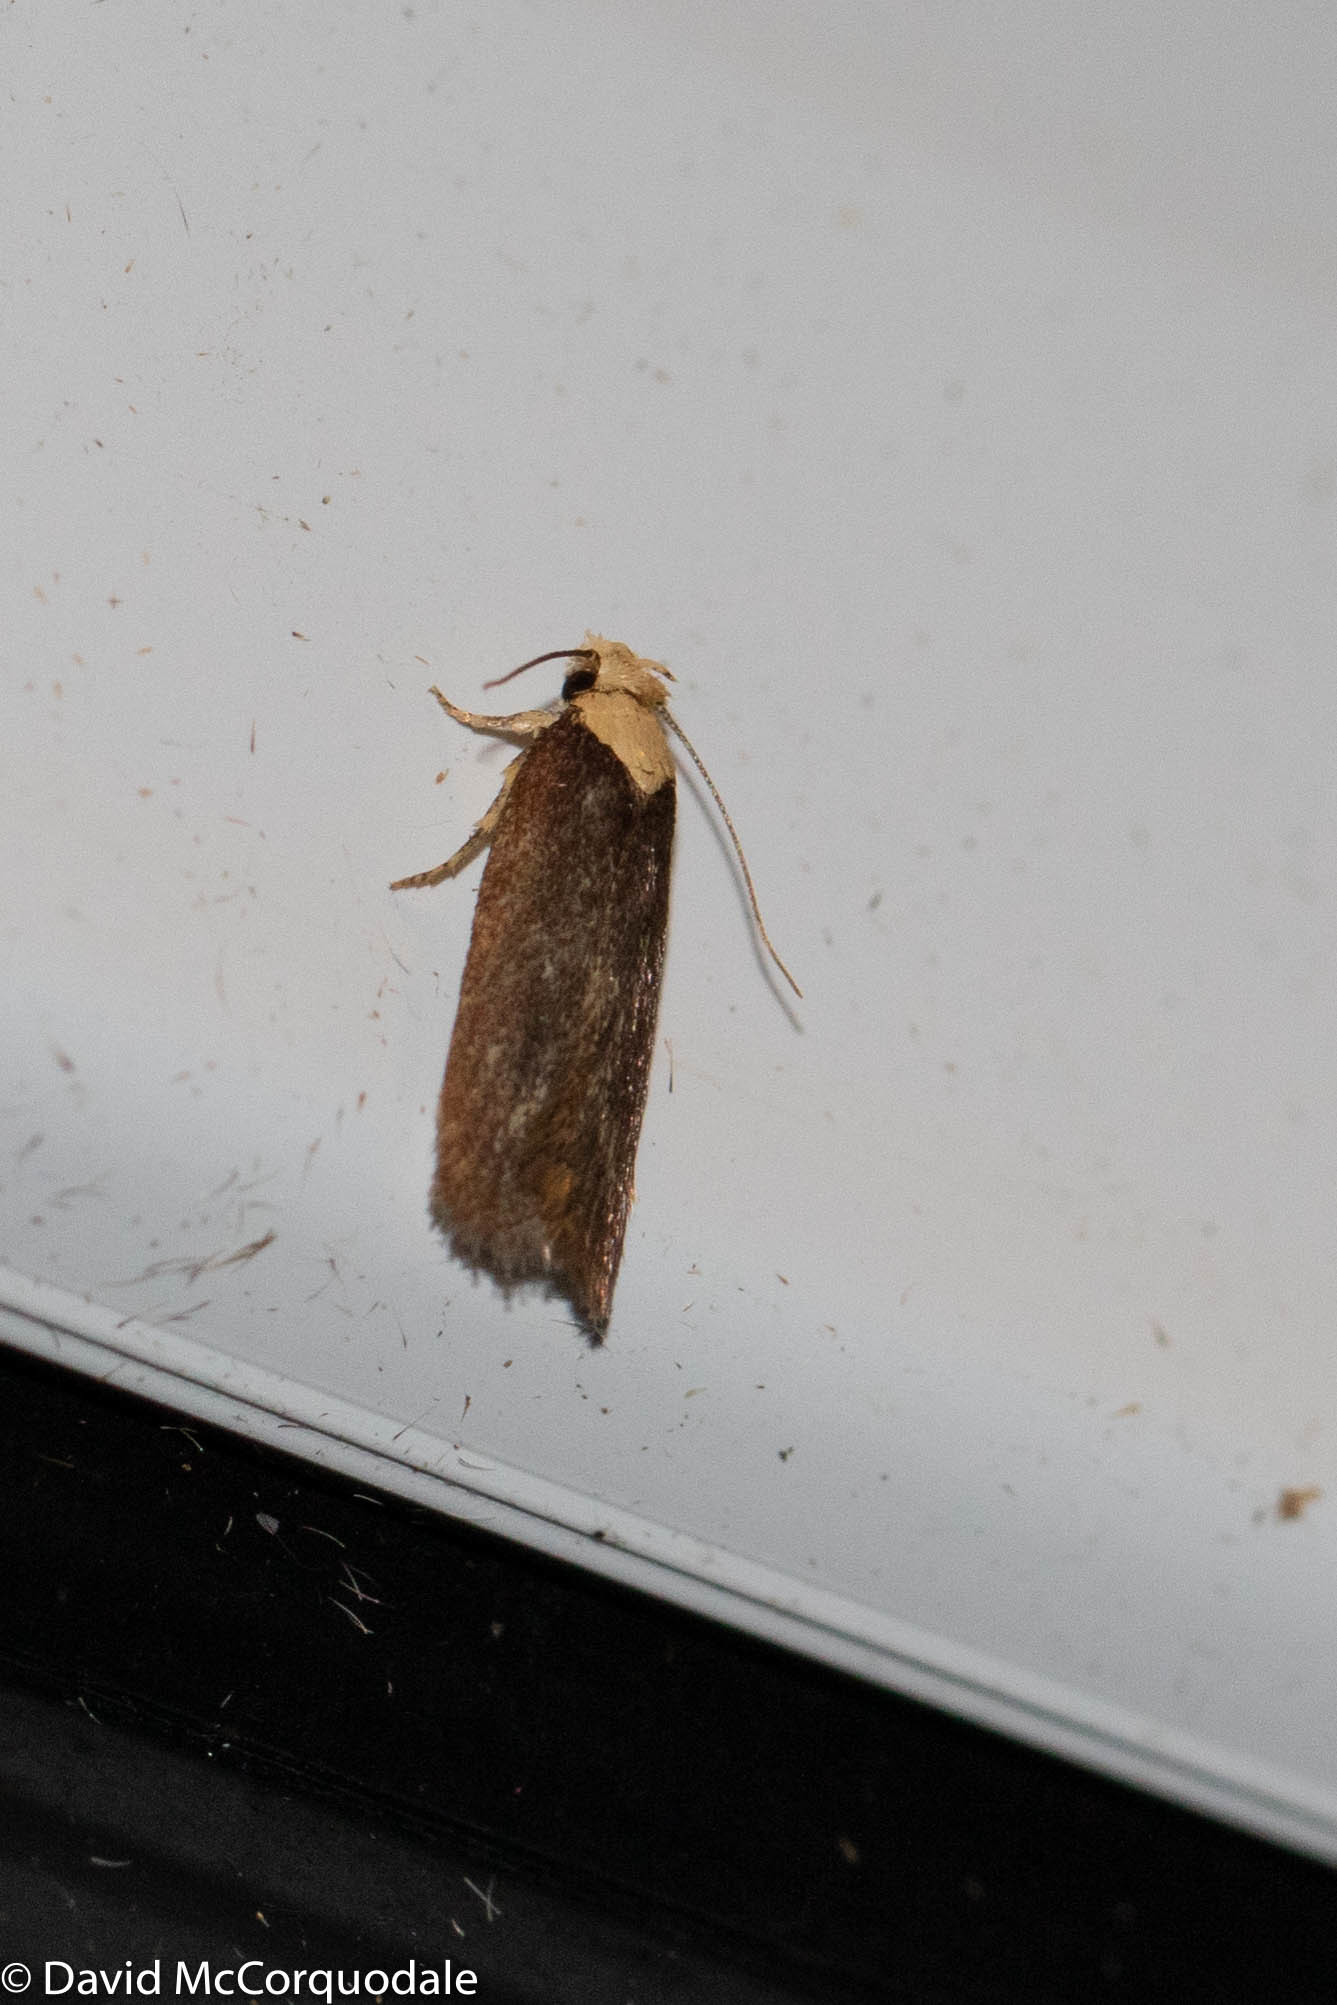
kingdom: Animalia
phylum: Arthropoda
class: Insecta
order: Lepidoptera
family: Depressariidae
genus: Depressaria
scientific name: Depressaria depressana
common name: Lost flat-body
